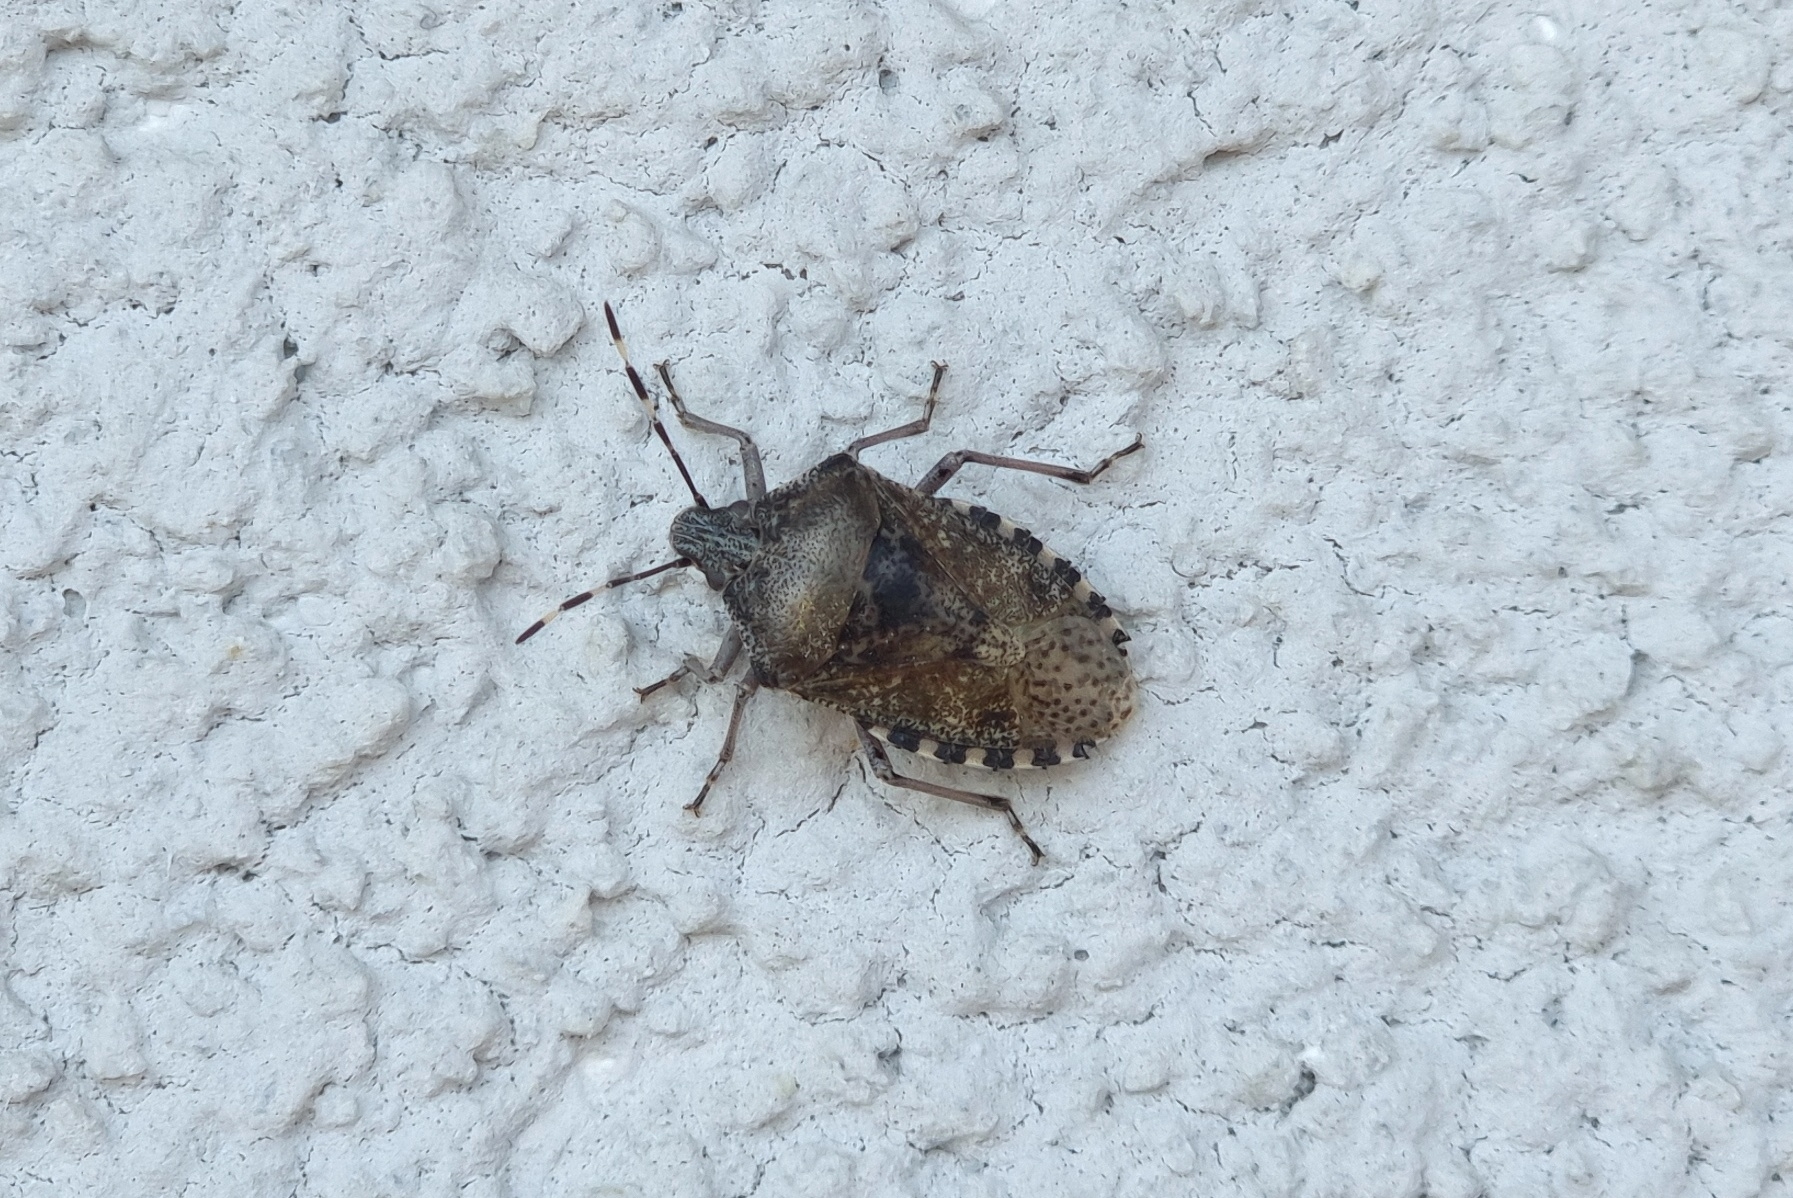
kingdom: Animalia
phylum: Arthropoda
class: Insecta
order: Hemiptera
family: Pentatomidae
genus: Rhaphigaster
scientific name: Rhaphigaster nebulosa
